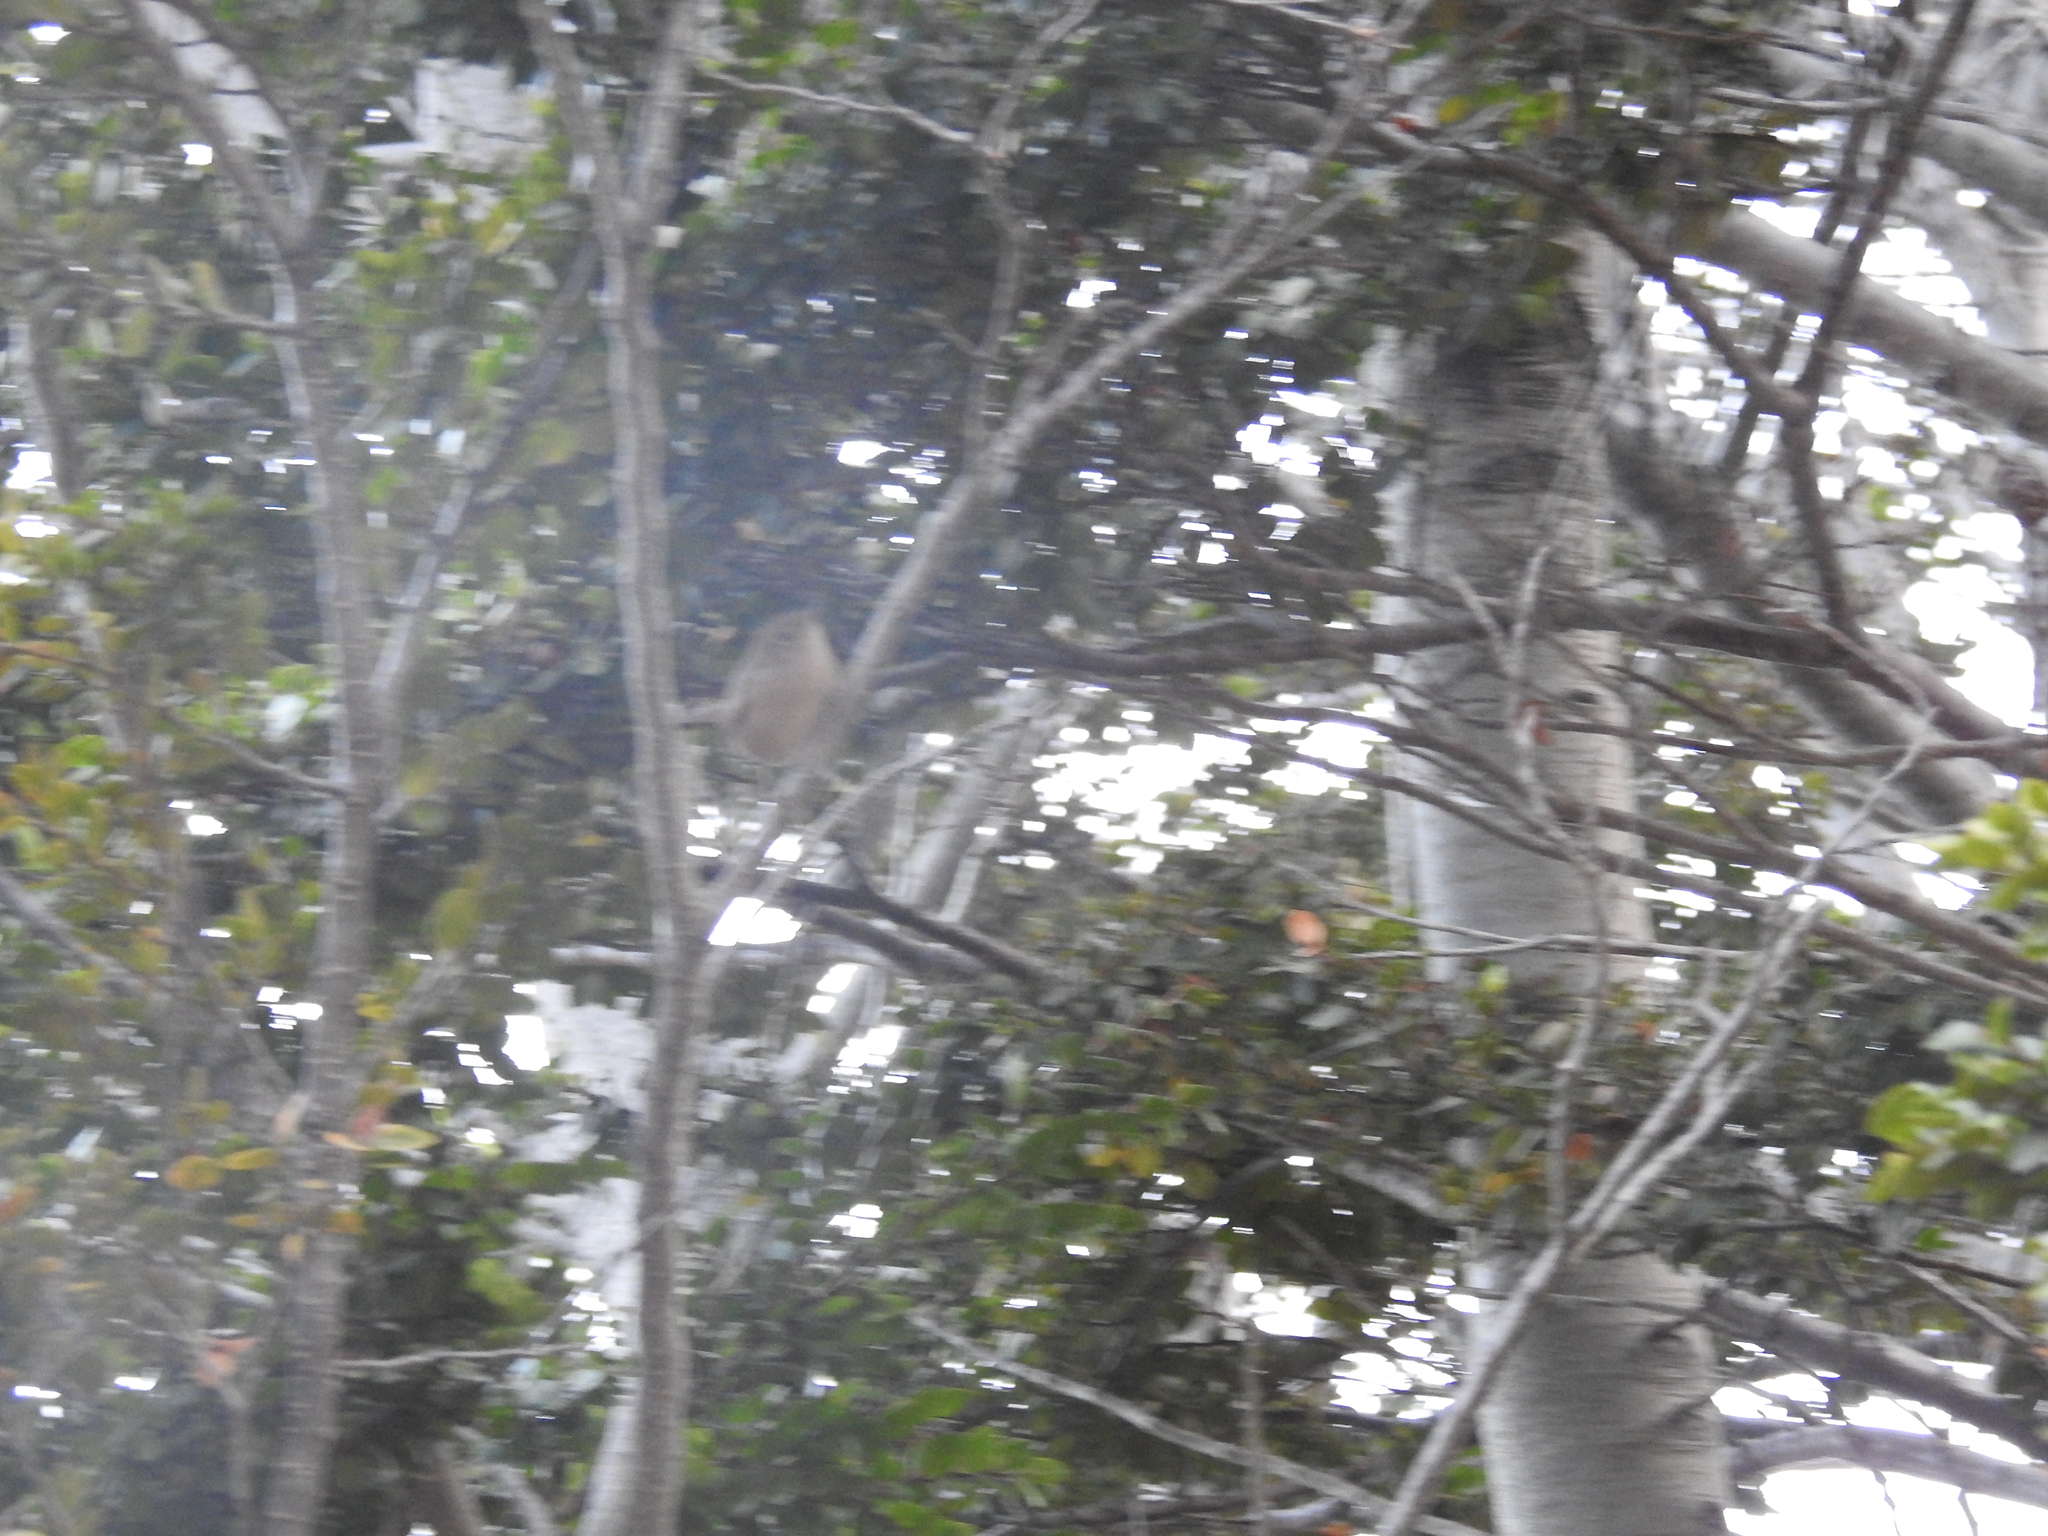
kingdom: Animalia
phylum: Chordata
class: Aves
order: Passeriformes
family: Troglodytidae
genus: Troglodytes
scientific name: Troglodytes aedon
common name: House wren
